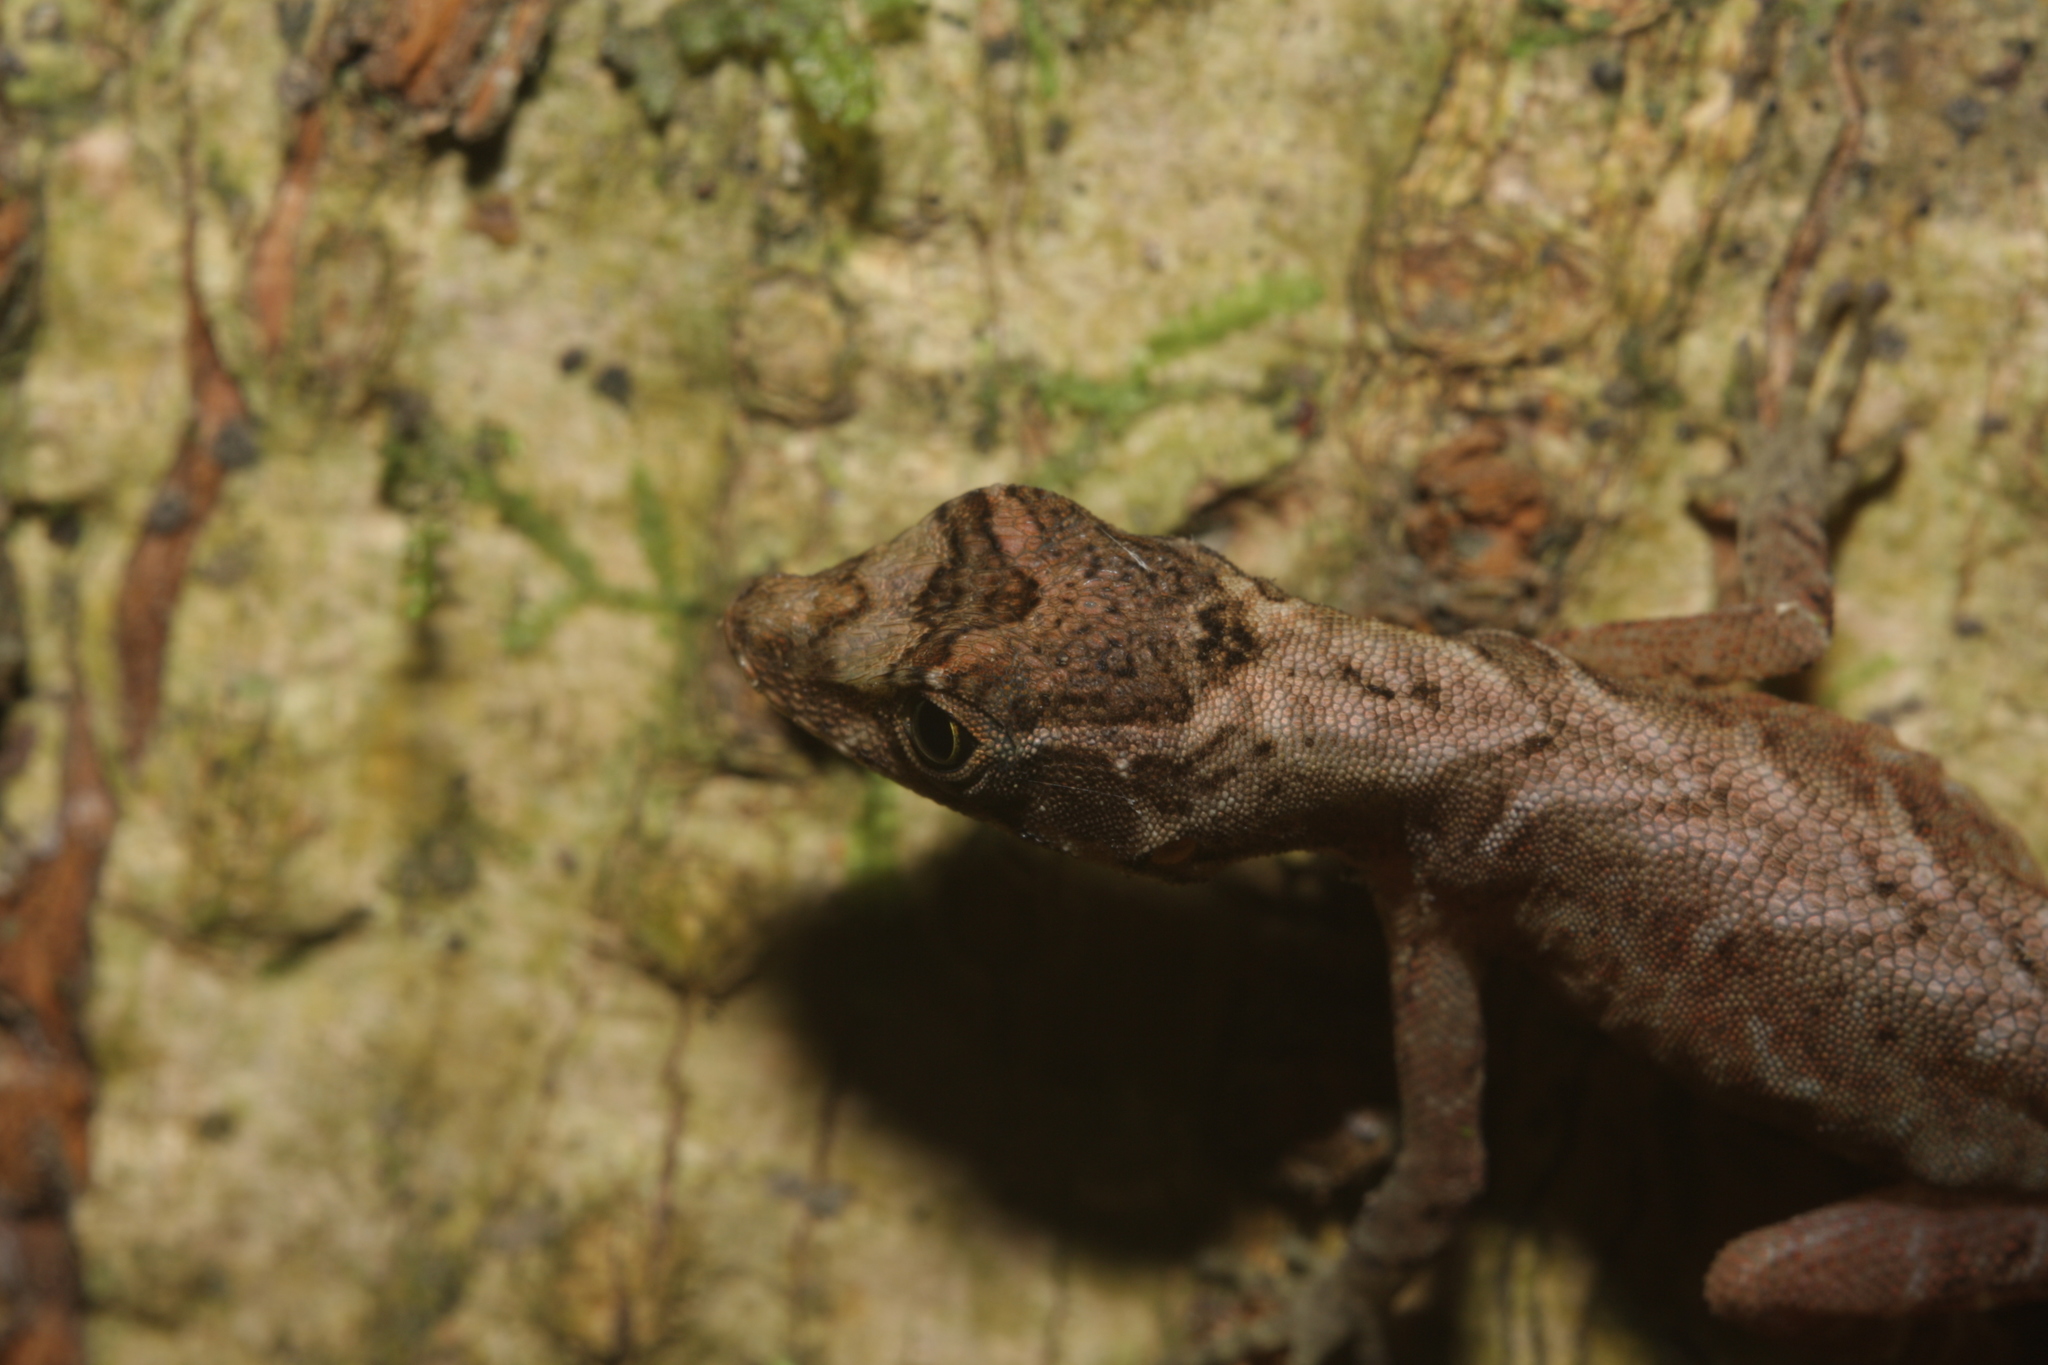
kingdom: Animalia
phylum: Chordata
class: Squamata
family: Dactyloidae
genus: Anolis
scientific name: Anolis humilis
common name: Humble anole
